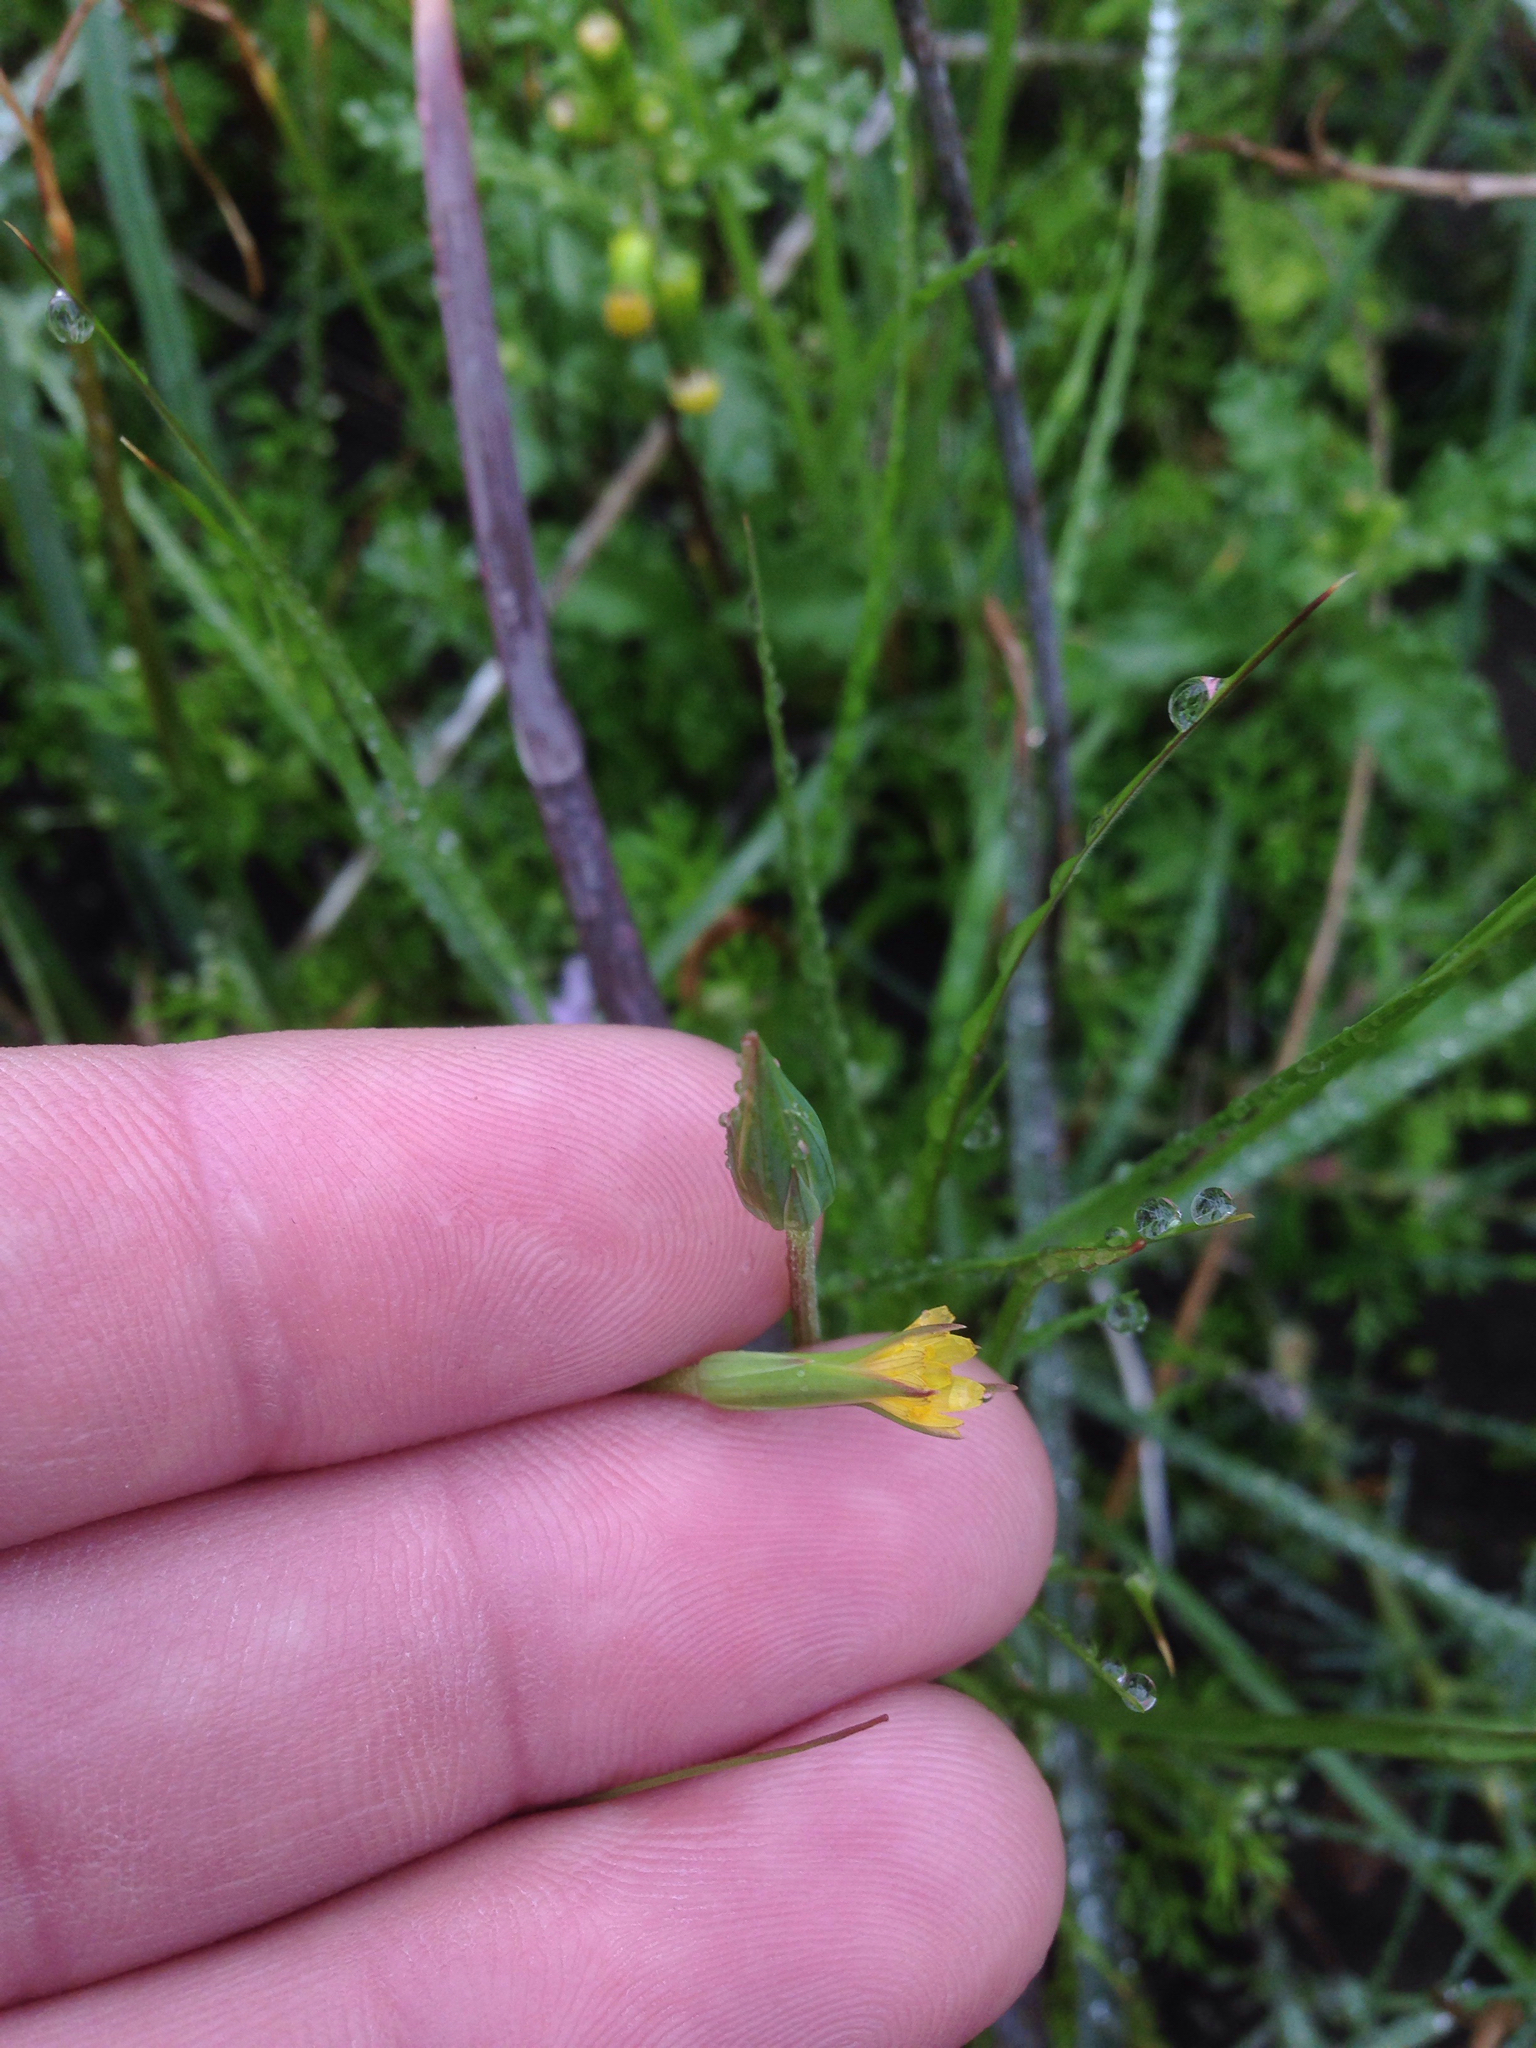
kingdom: Plantae
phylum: Tracheophyta
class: Magnoliopsida
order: Asterales
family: Asteraceae
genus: Microseris
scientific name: Microseris lindleyi
